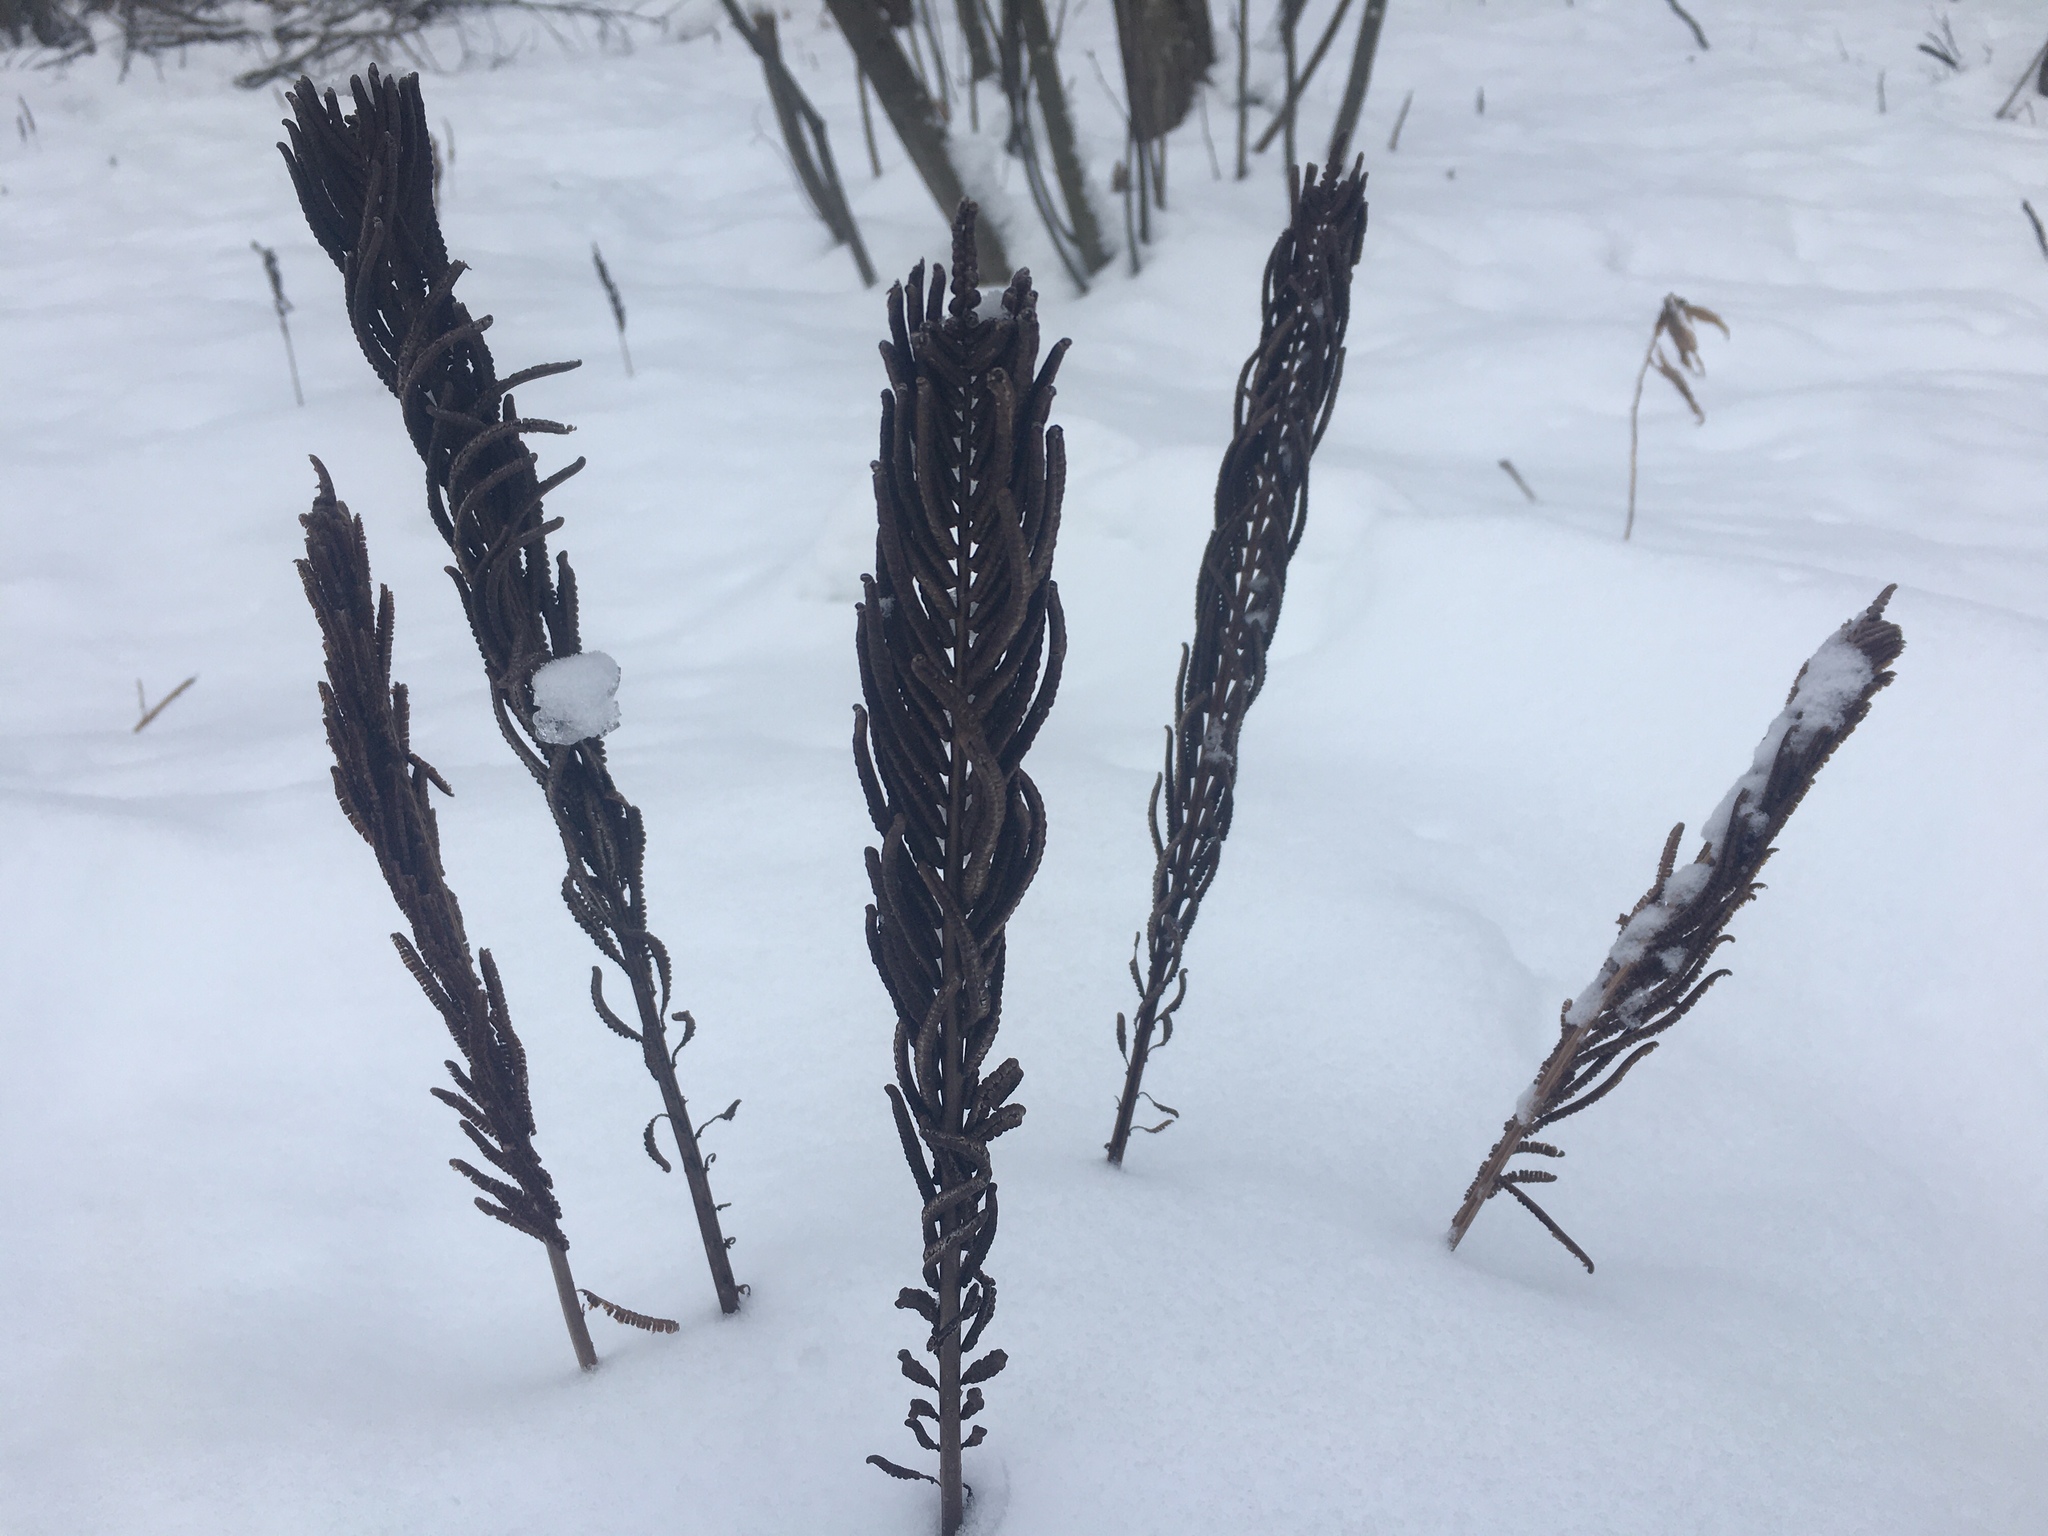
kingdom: Plantae
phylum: Tracheophyta
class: Polypodiopsida
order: Polypodiales
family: Onocleaceae
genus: Matteuccia
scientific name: Matteuccia struthiopteris
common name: Ostrich fern
